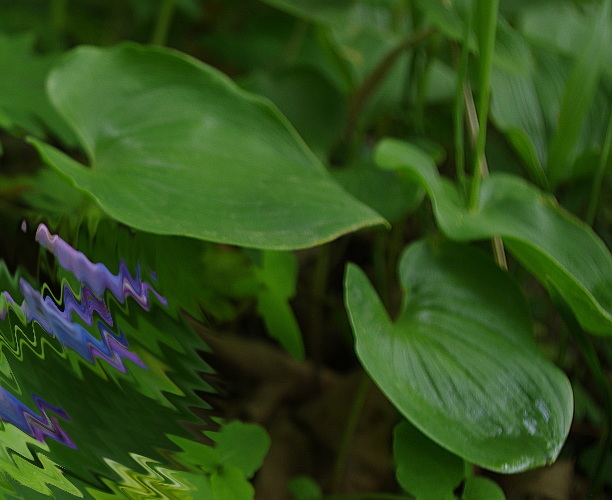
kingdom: Plantae
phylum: Tracheophyta
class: Liliopsida
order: Asparagales
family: Asparagaceae
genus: Maianthemum
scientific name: Maianthemum dilatatum
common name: False lily-of-the-valley
